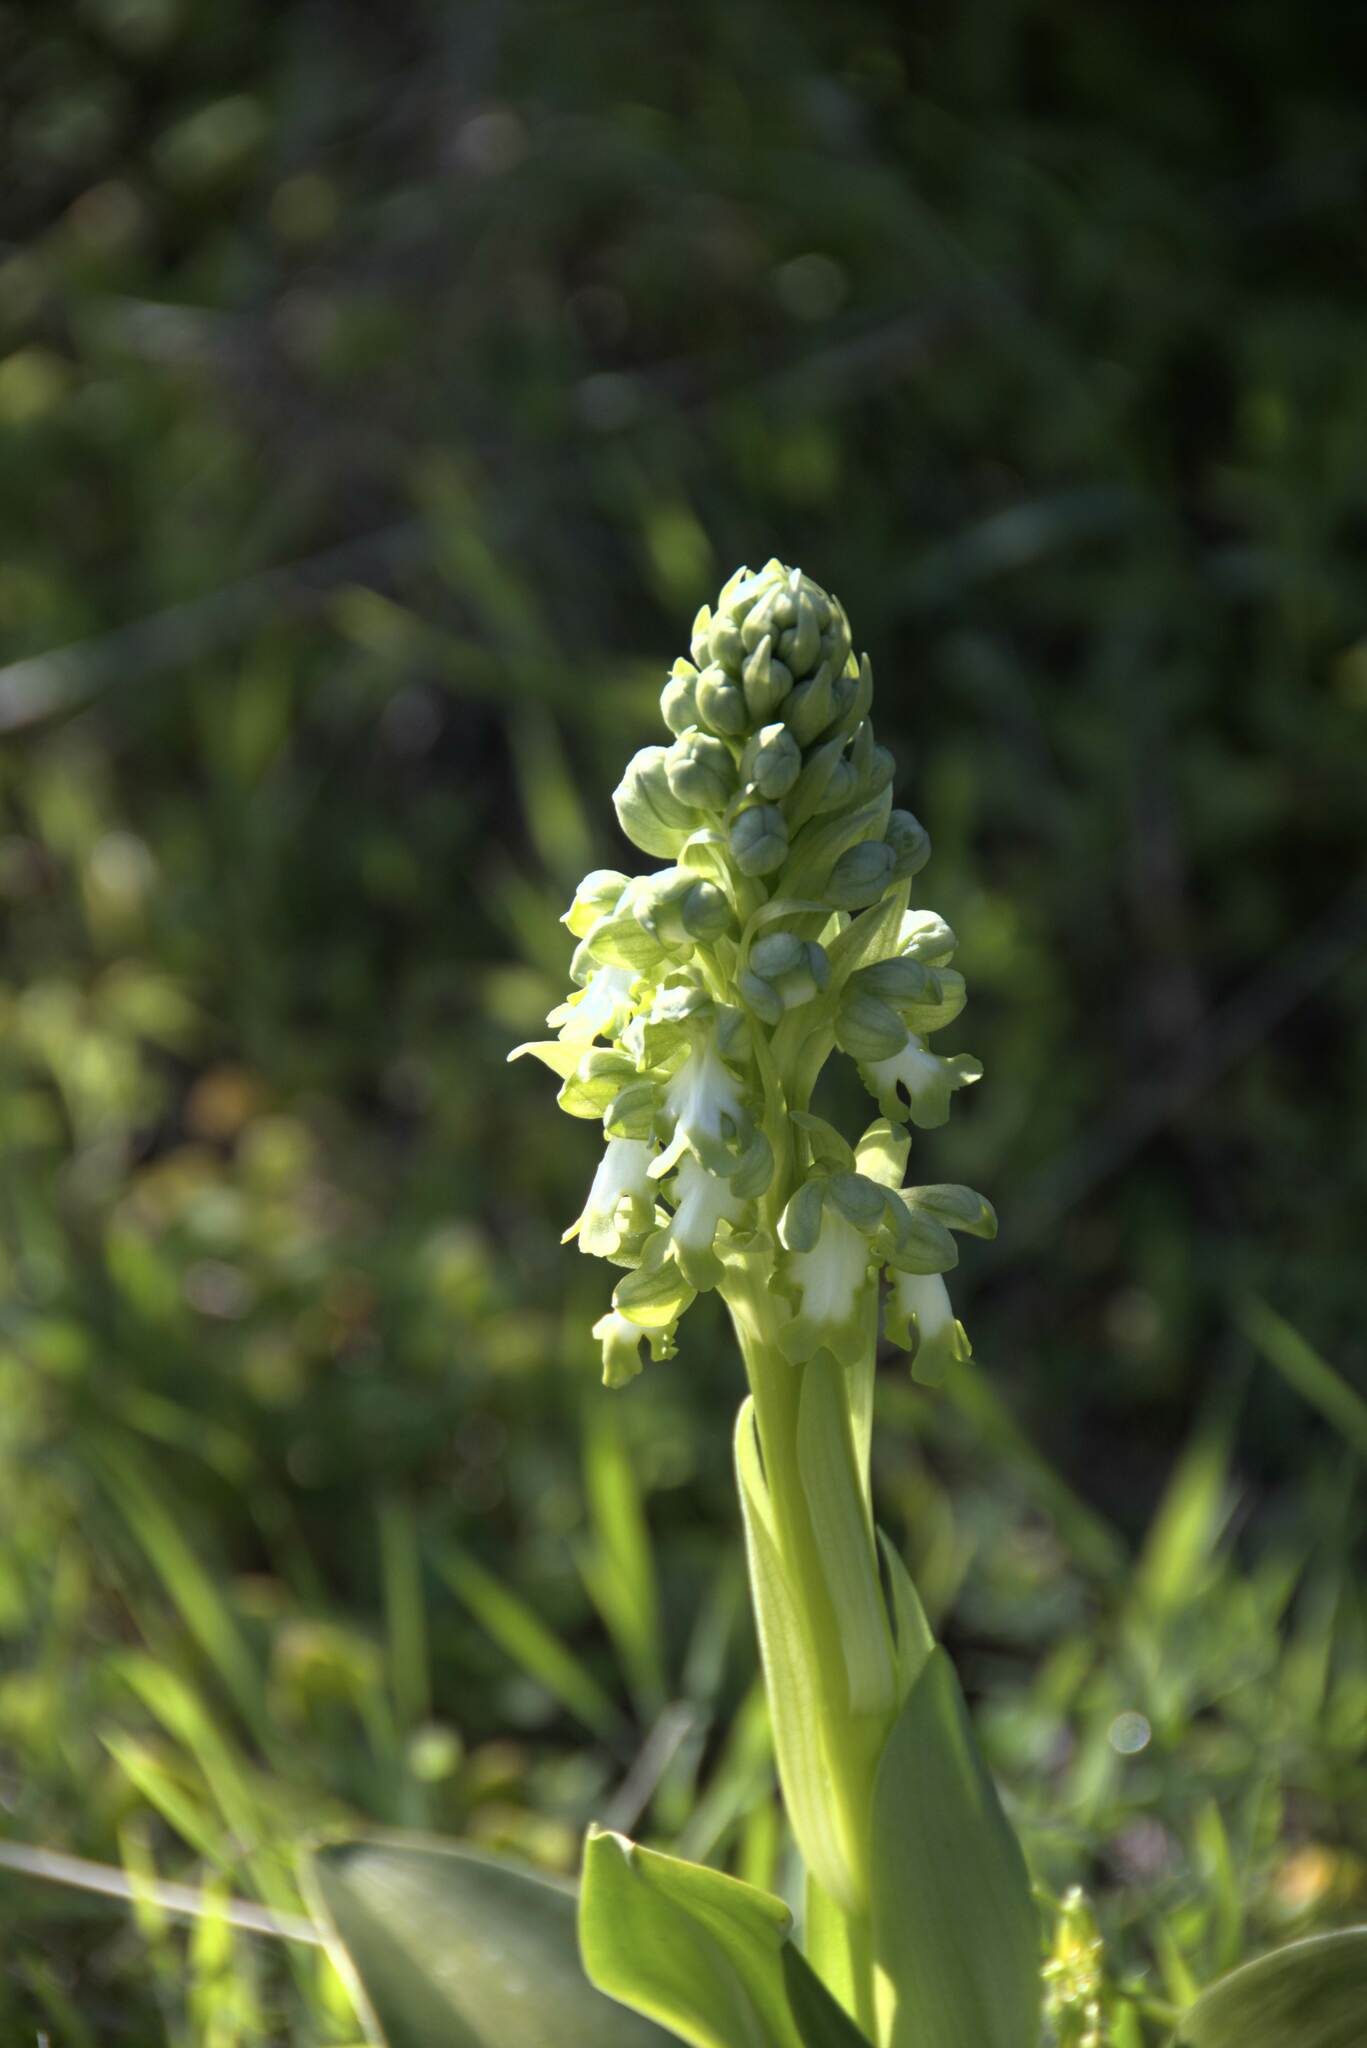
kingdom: Plantae
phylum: Tracheophyta
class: Liliopsida
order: Asparagales
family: Orchidaceae
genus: Himantoglossum
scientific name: Himantoglossum robertianum
